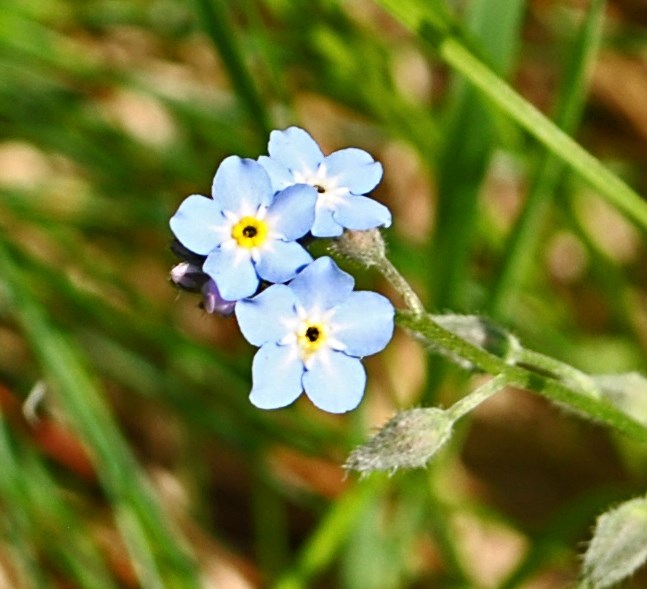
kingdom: Plantae
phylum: Tracheophyta
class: Magnoliopsida
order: Boraginales
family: Boraginaceae
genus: Myosotis
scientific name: Myosotis sylvatica
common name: Wood forget-me-not
